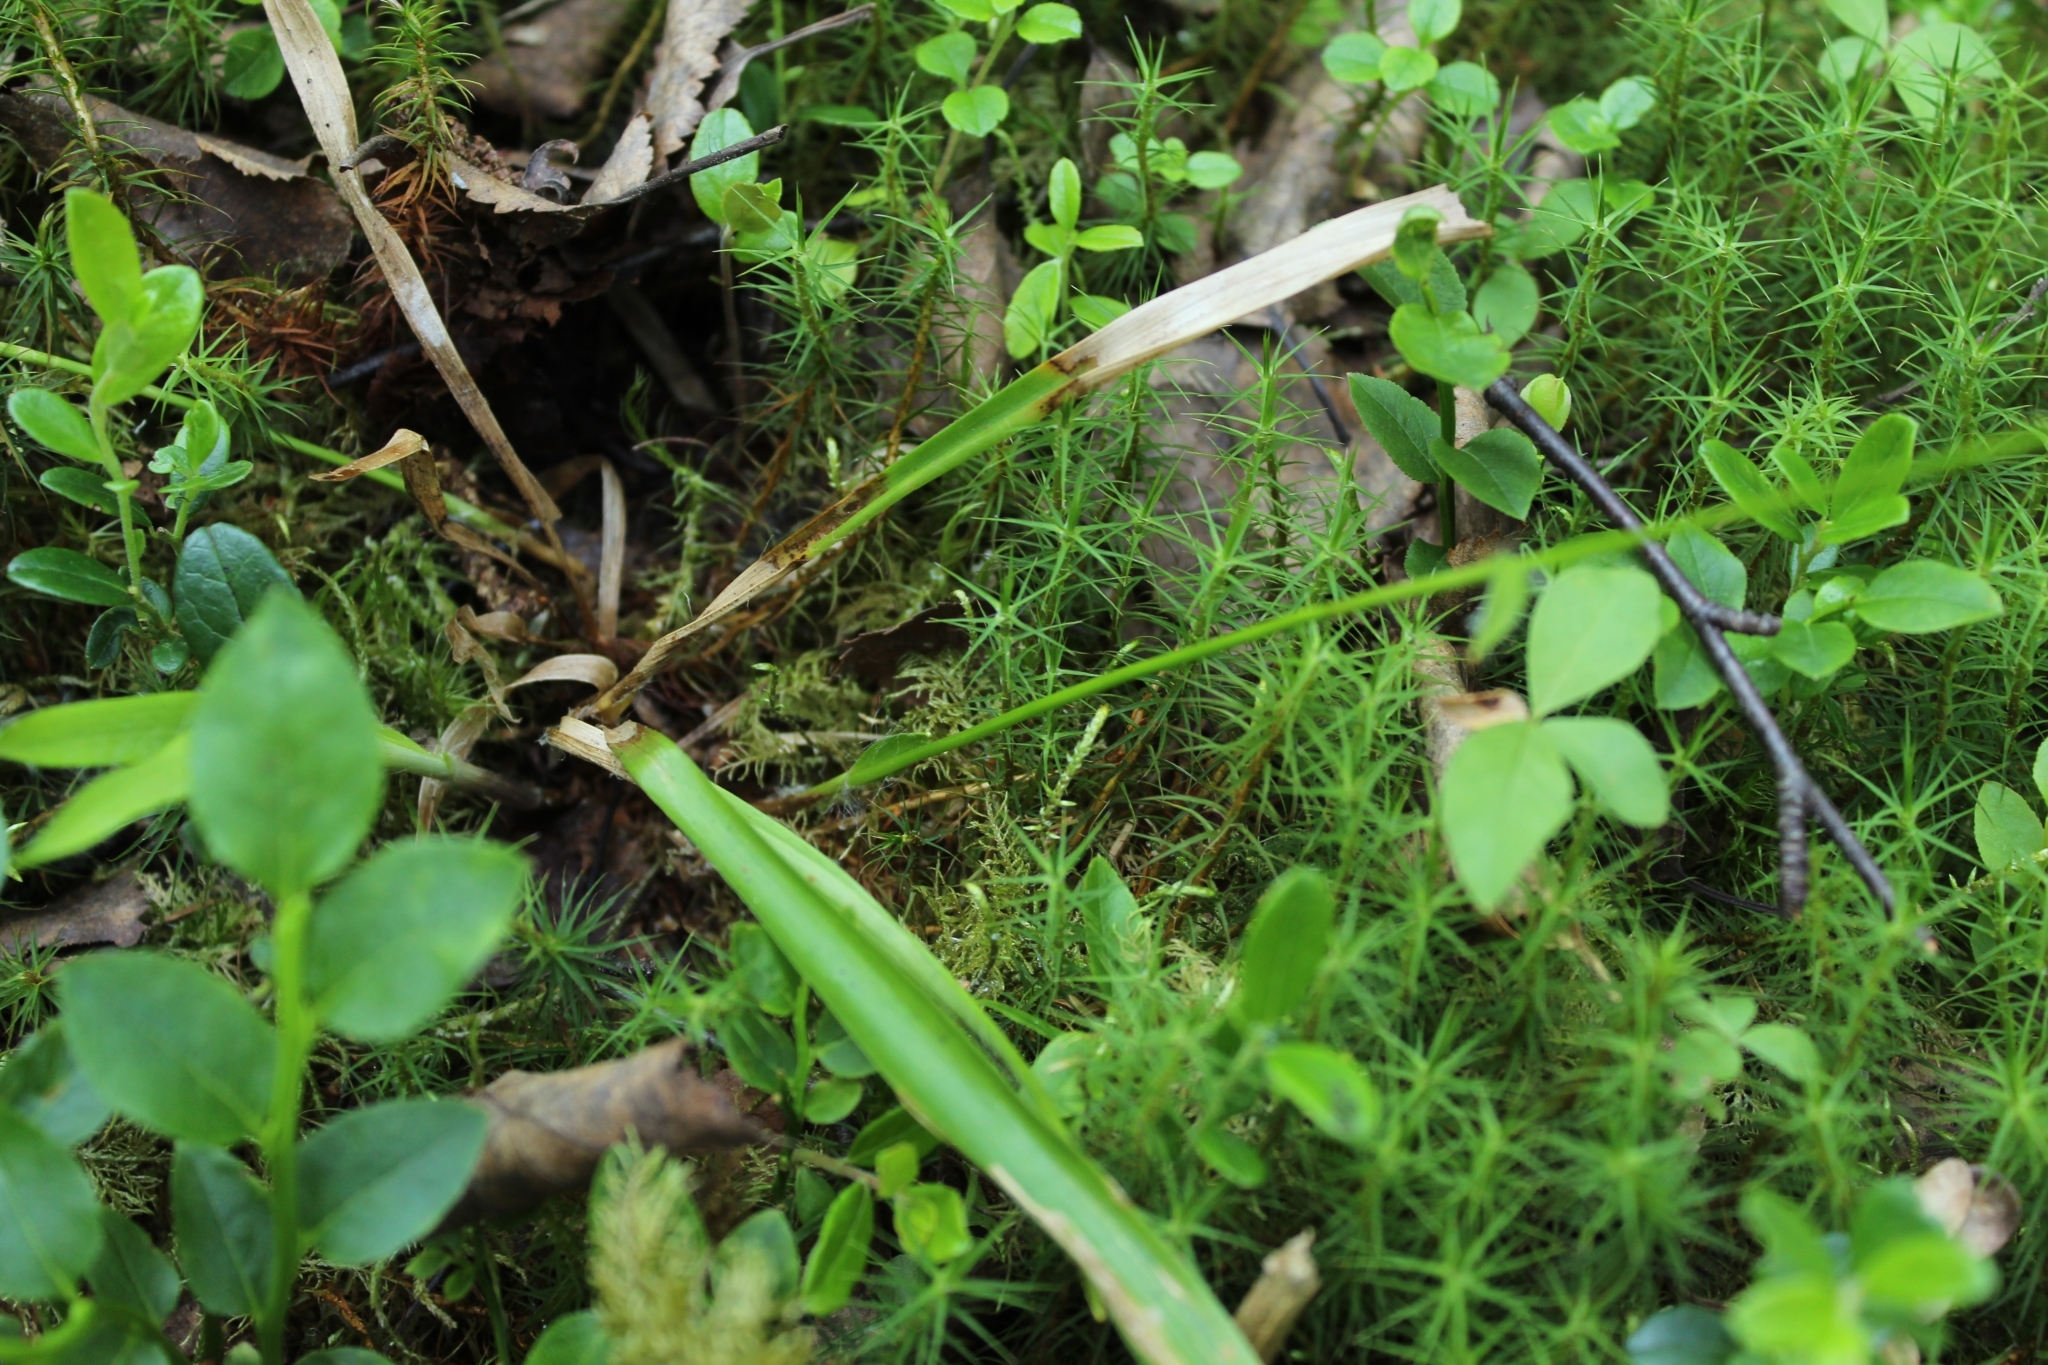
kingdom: Plantae
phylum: Tracheophyta
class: Liliopsida
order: Poales
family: Juncaceae
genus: Luzula
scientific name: Luzula pilosa
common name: Hairy wood-rush
